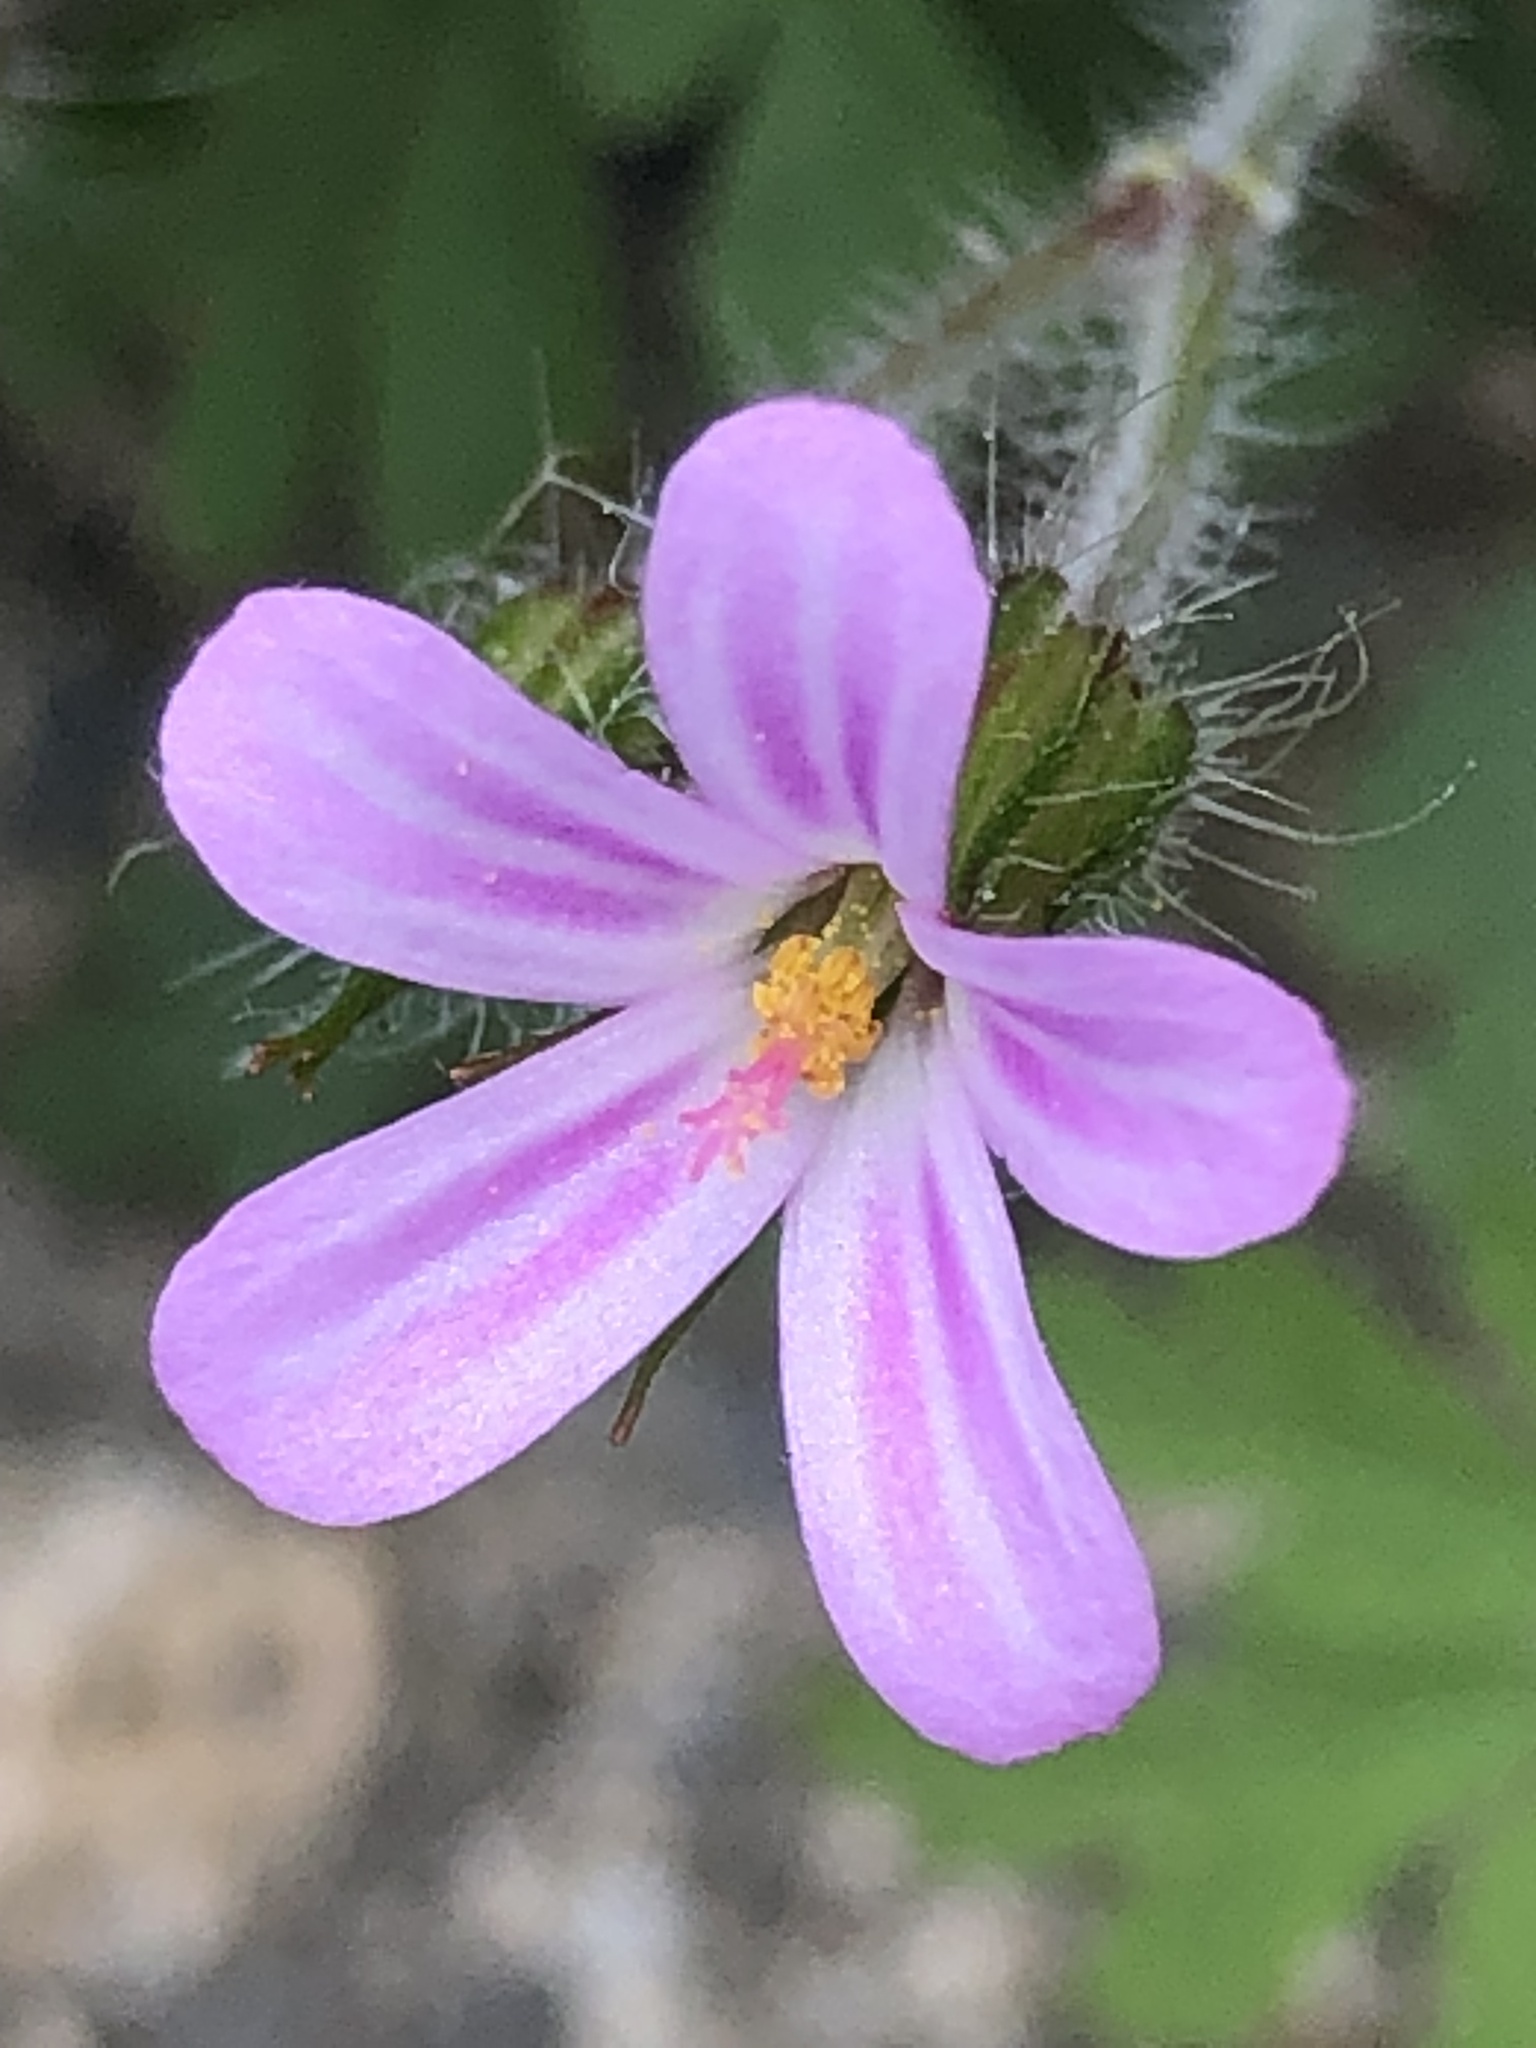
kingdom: Plantae
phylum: Tracheophyta
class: Magnoliopsida
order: Geraniales
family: Geraniaceae
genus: Geranium
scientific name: Geranium robertianum
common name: Herb-robert
